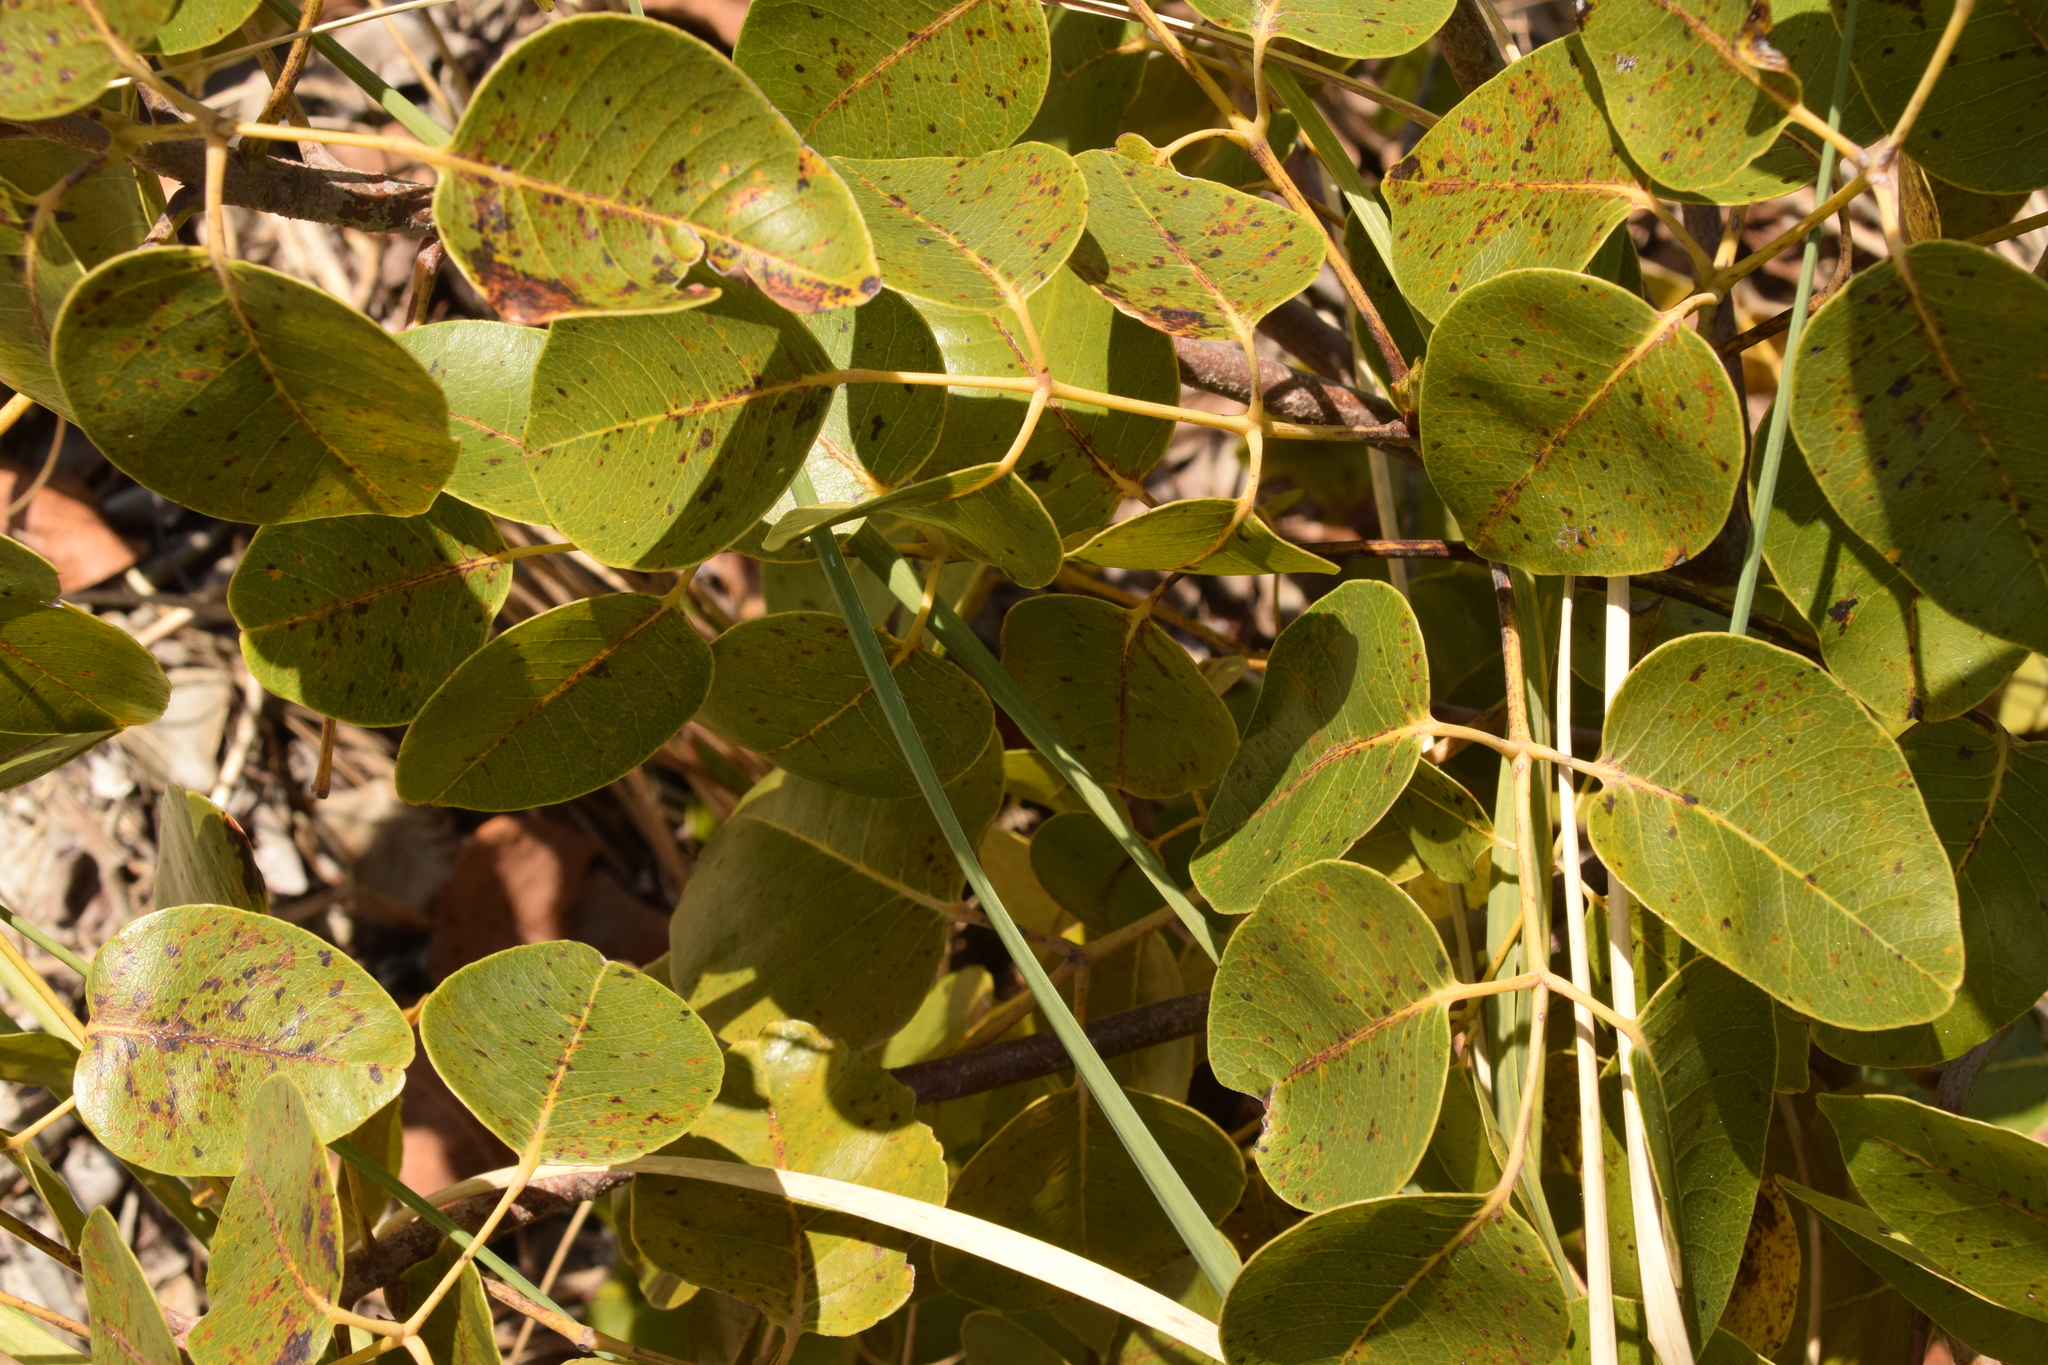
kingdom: Plantae
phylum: Tracheophyta
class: Magnoliopsida
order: Sapindales
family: Anacardiaceae
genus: Metopium
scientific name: Metopium toxiferum
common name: Florida poisontree
